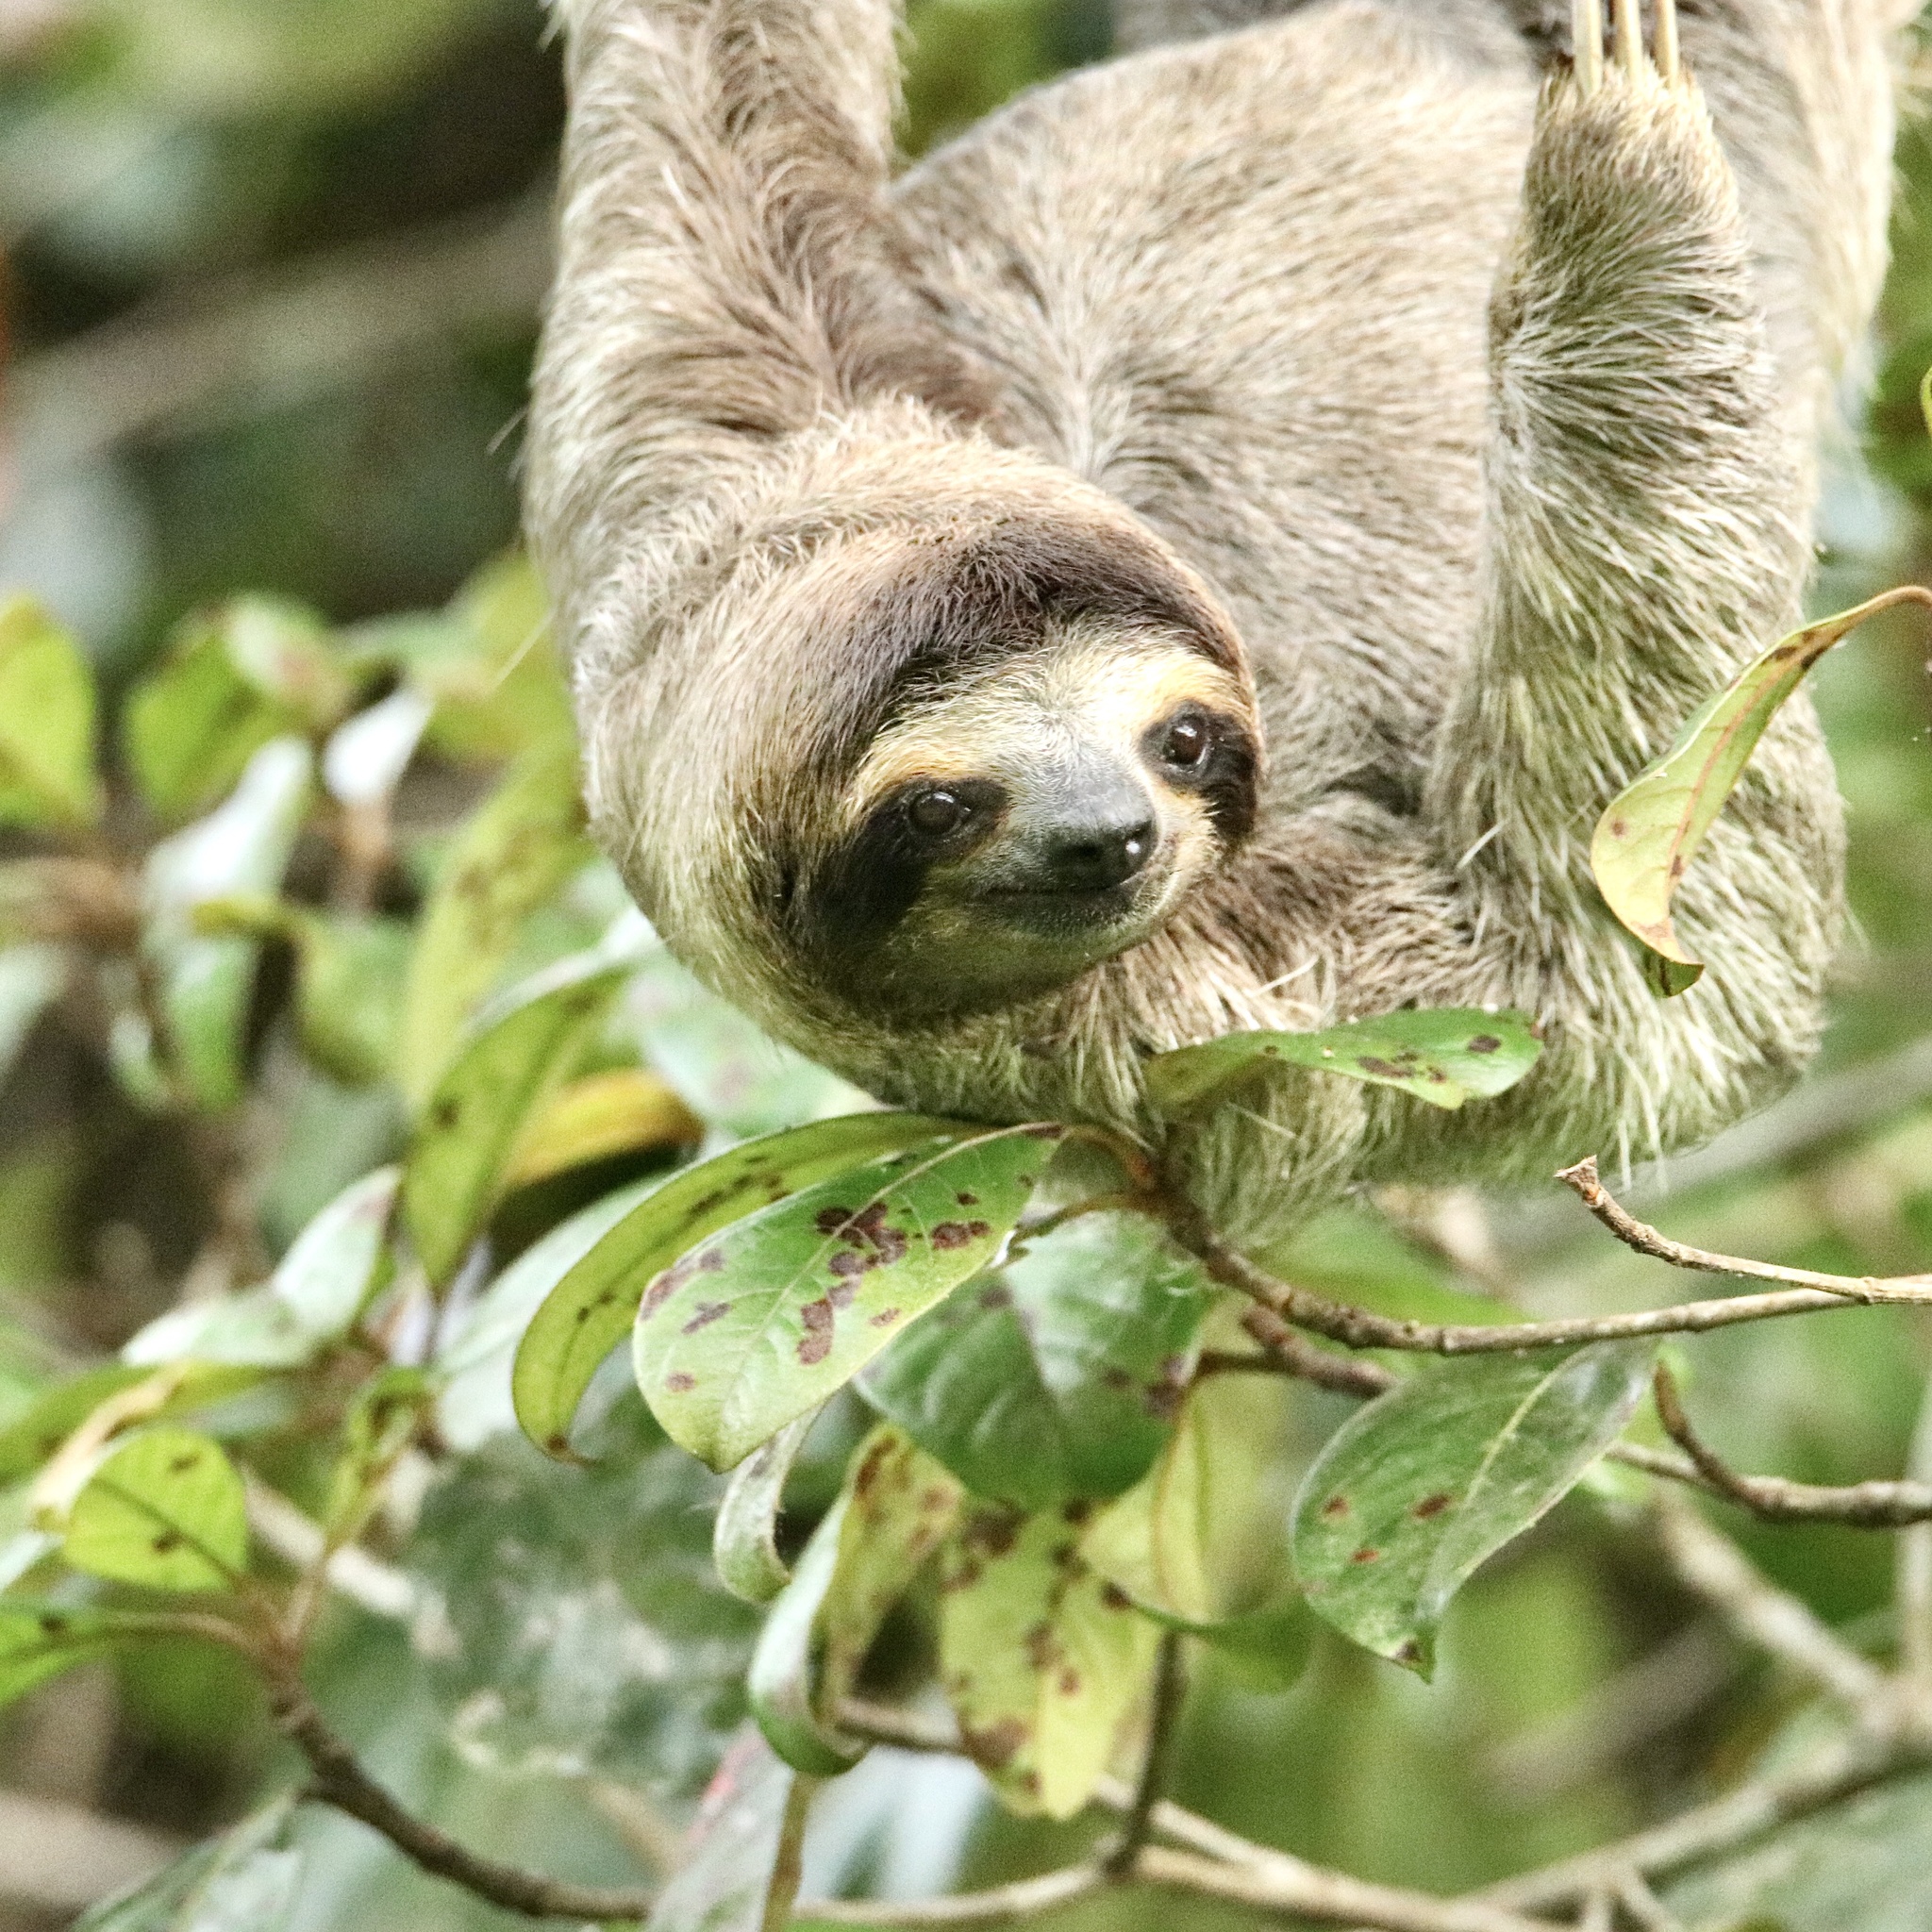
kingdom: Animalia
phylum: Chordata
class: Mammalia
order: Pilosa
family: Bradypodidae
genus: Bradypus
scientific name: Bradypus variegatus
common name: Brown-throated three-toed sloth
